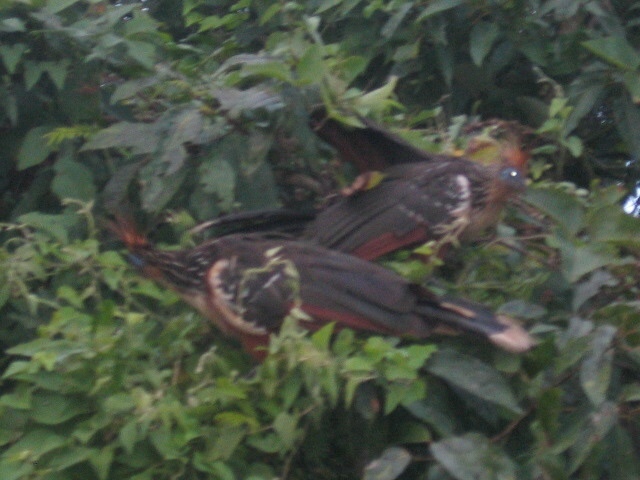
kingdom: Animalia
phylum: Chordata
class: Aves
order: Opisthocomiformes
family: Opisthocomidae
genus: Opisthocomus
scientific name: Opisthocomus hoazin
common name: Hoatzin
